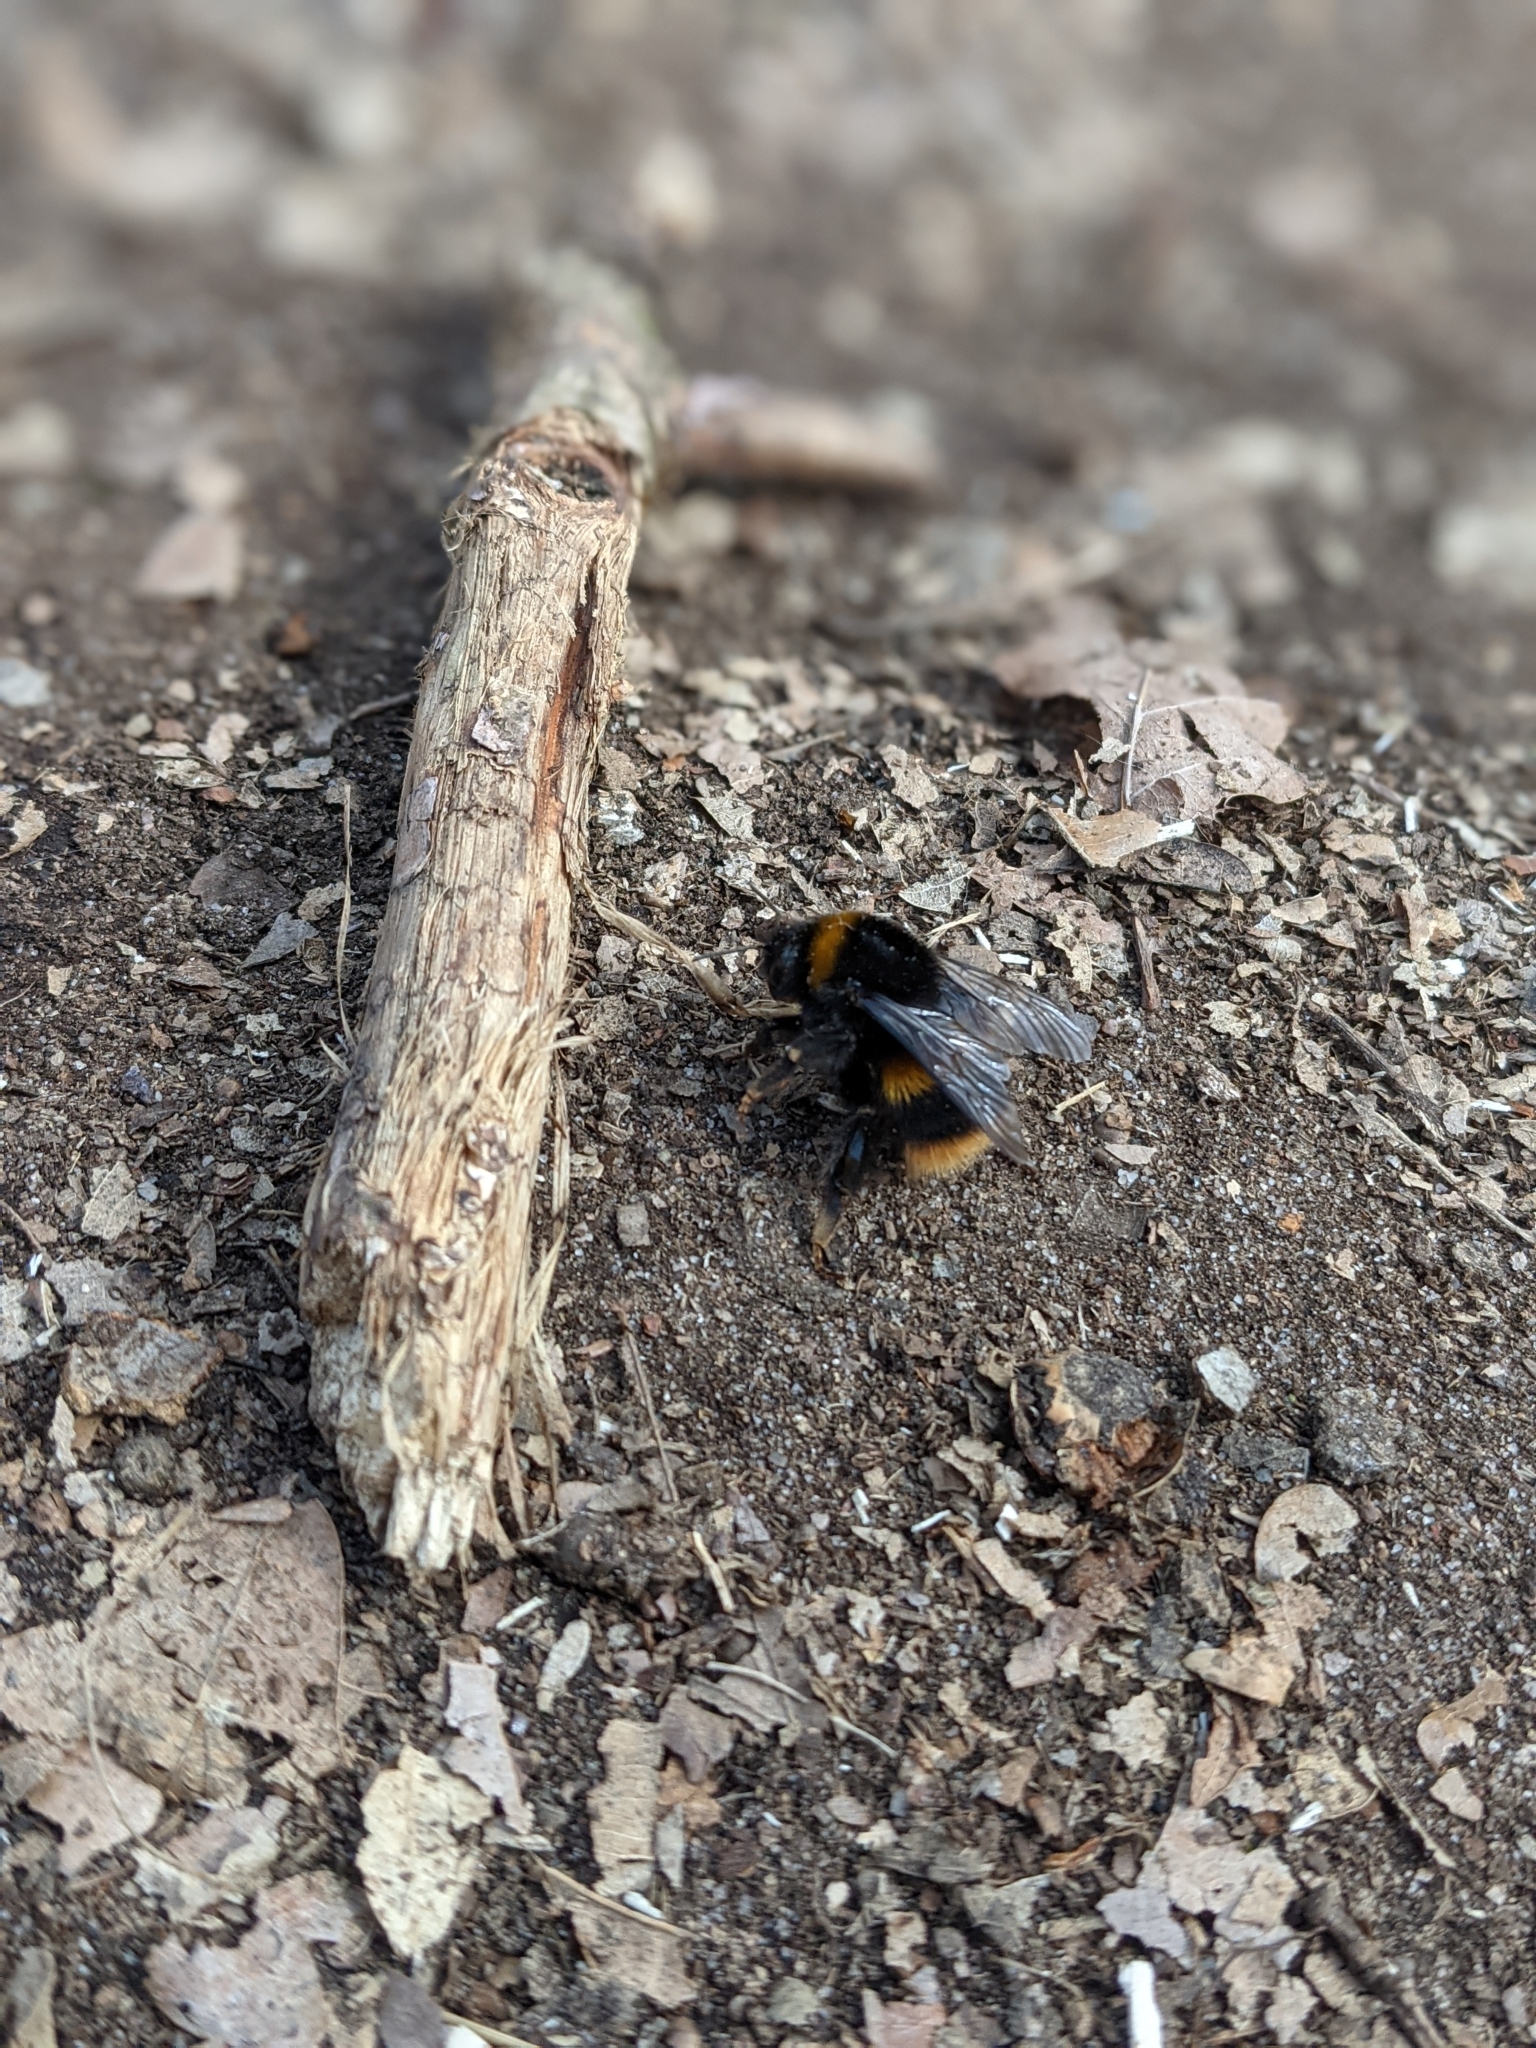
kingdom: Animalia
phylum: Arthropoda
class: Insecta
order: Hymenoptera
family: Apidae
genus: Bombus
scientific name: Bombus terrestris
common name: Buff-tailed bumblebee
